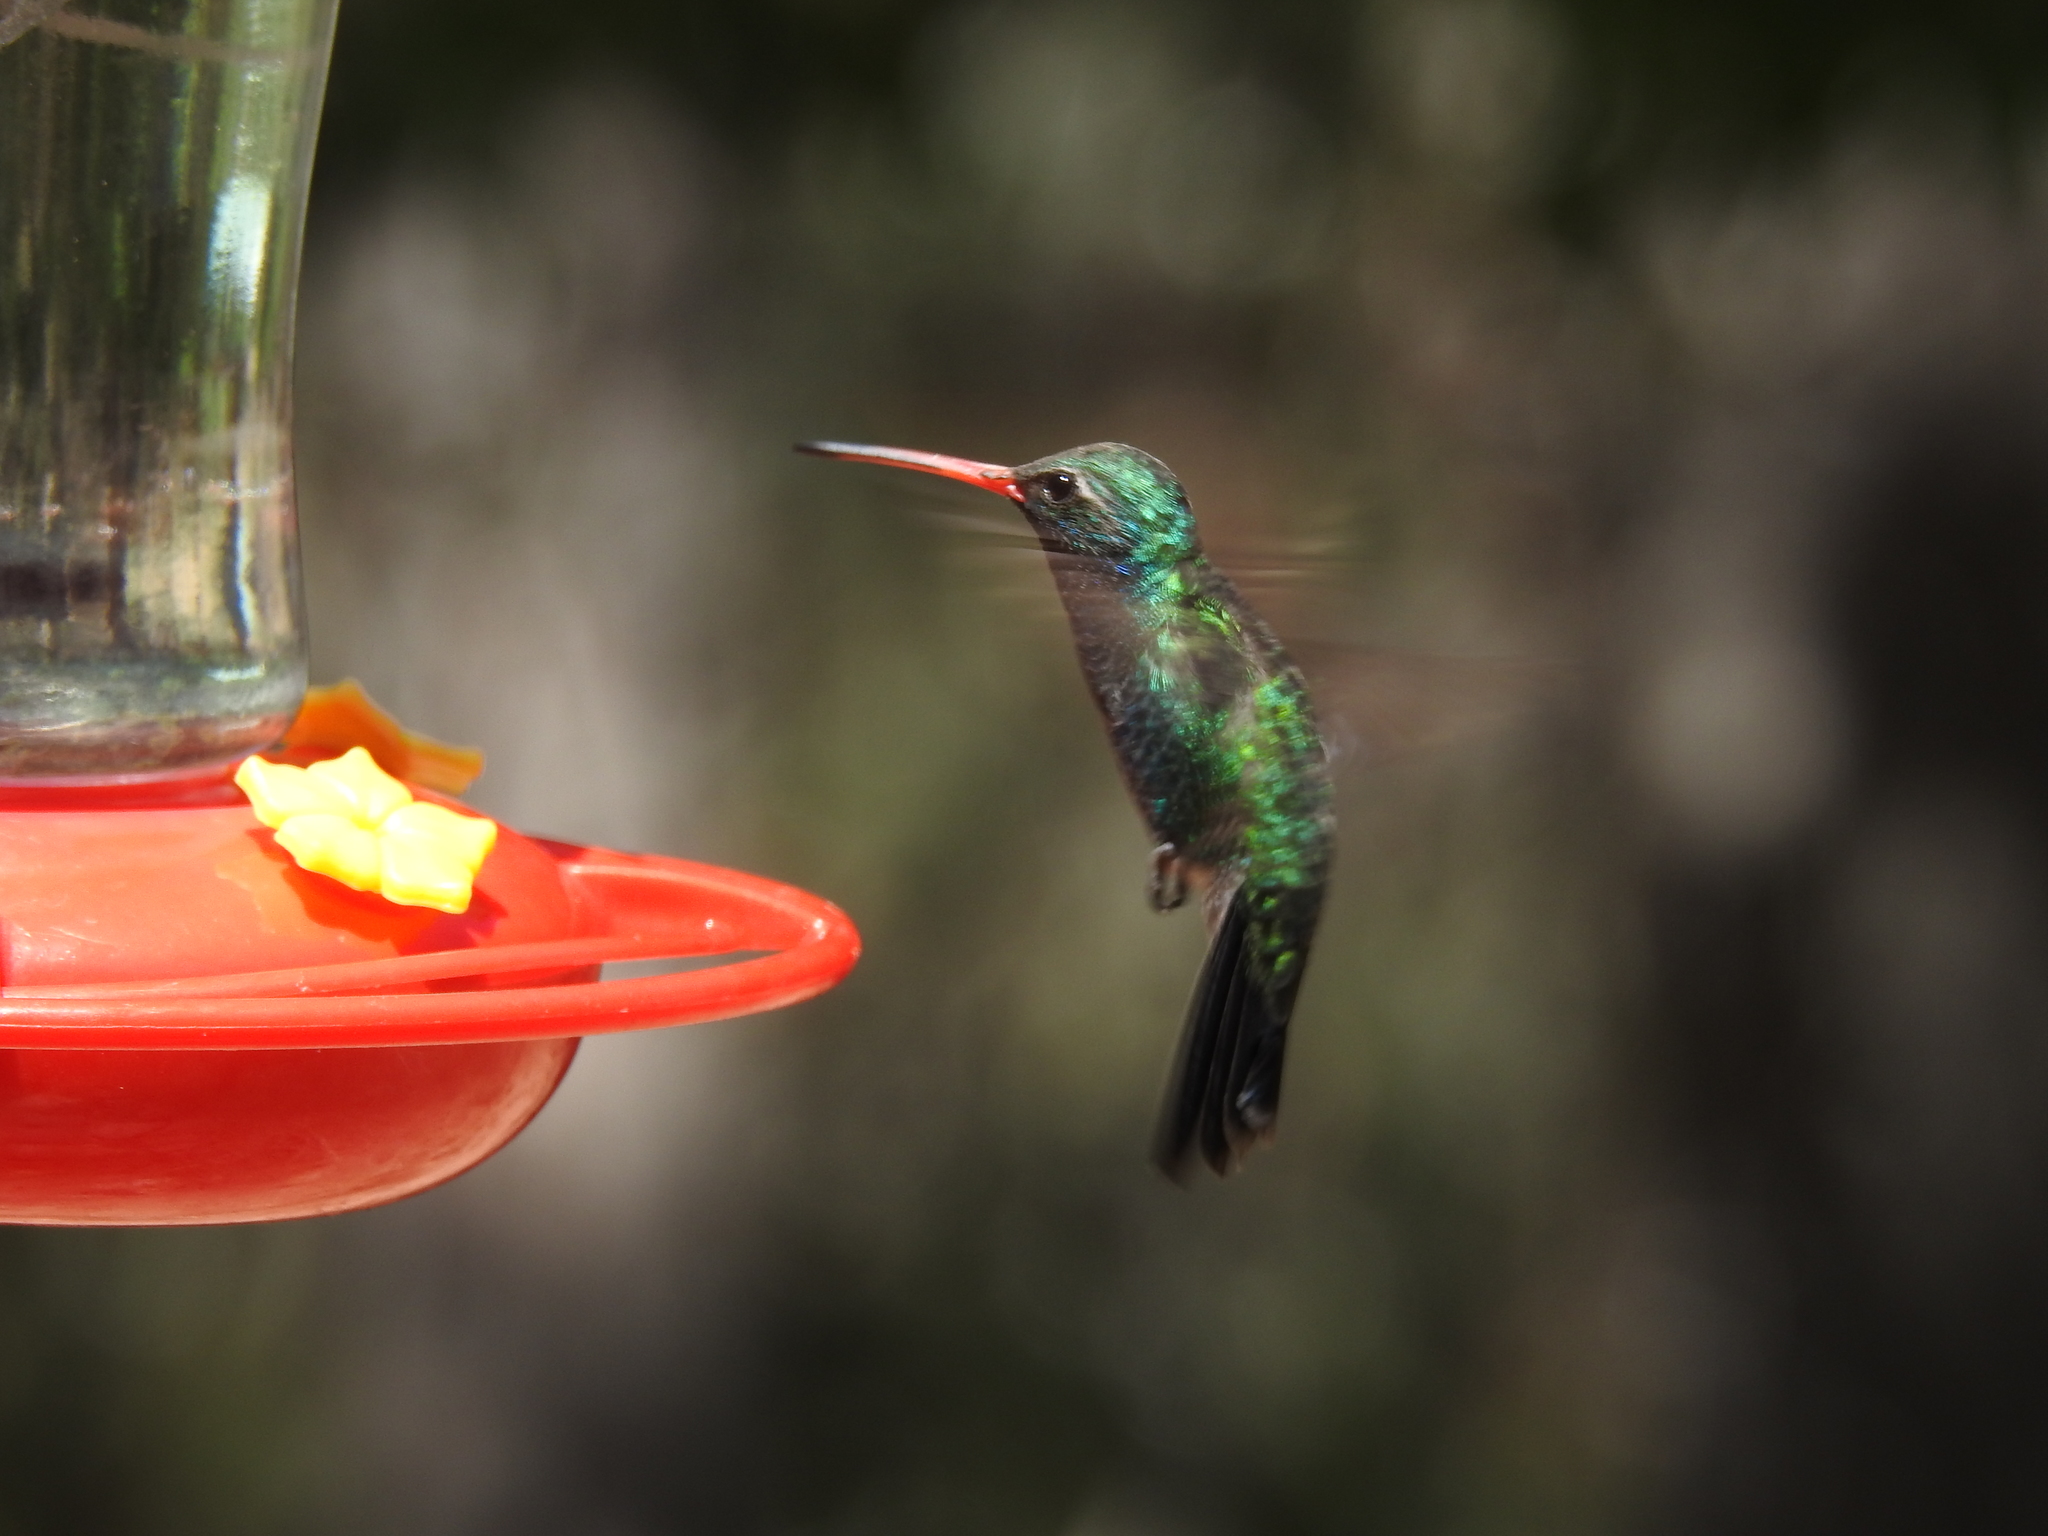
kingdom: Animalia
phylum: Chordata
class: Aves
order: Apodiformes
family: Trochilidae
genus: Cynanthus
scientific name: Cynanthus latirostris
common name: Broad-billed hummingbird
